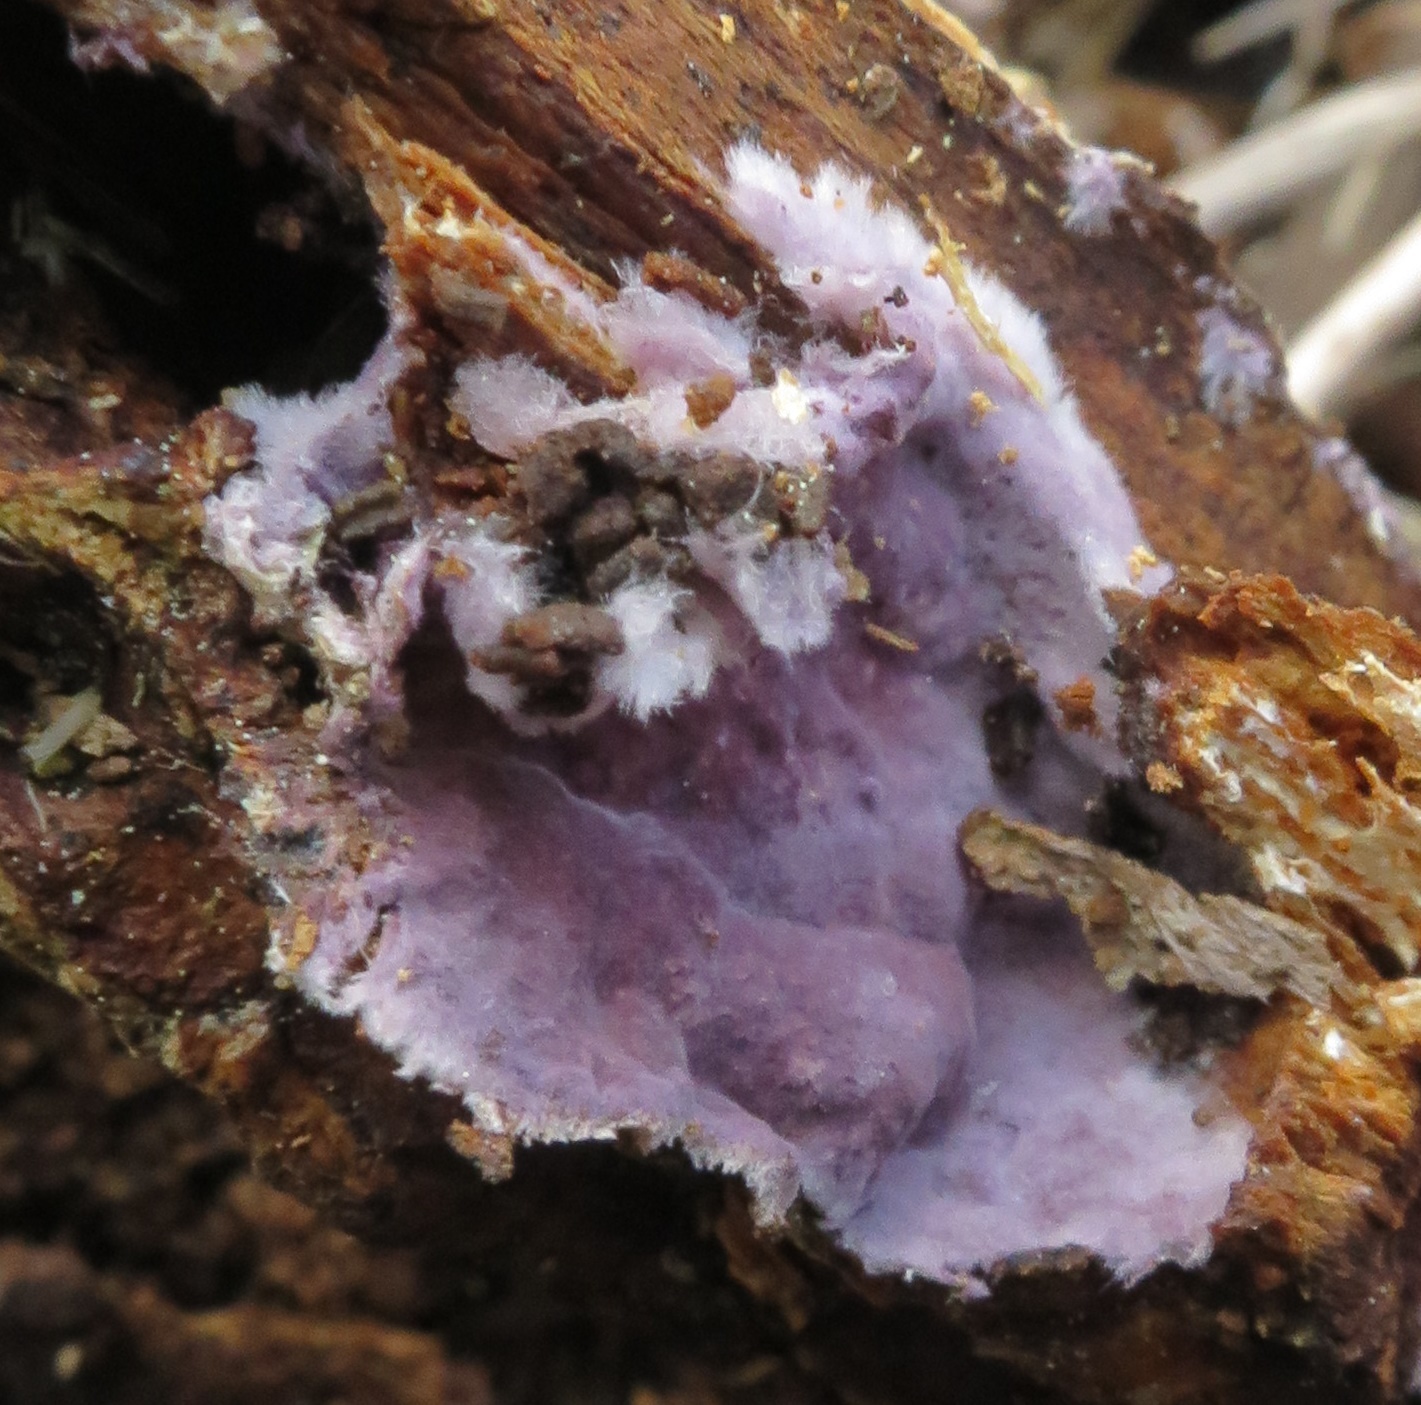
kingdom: Fungi
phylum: Basidiomycota
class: Agaricomycetes
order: Polyporales
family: Irpicaceae
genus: Byssomerulius
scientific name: Byssomerulius psittacinus
